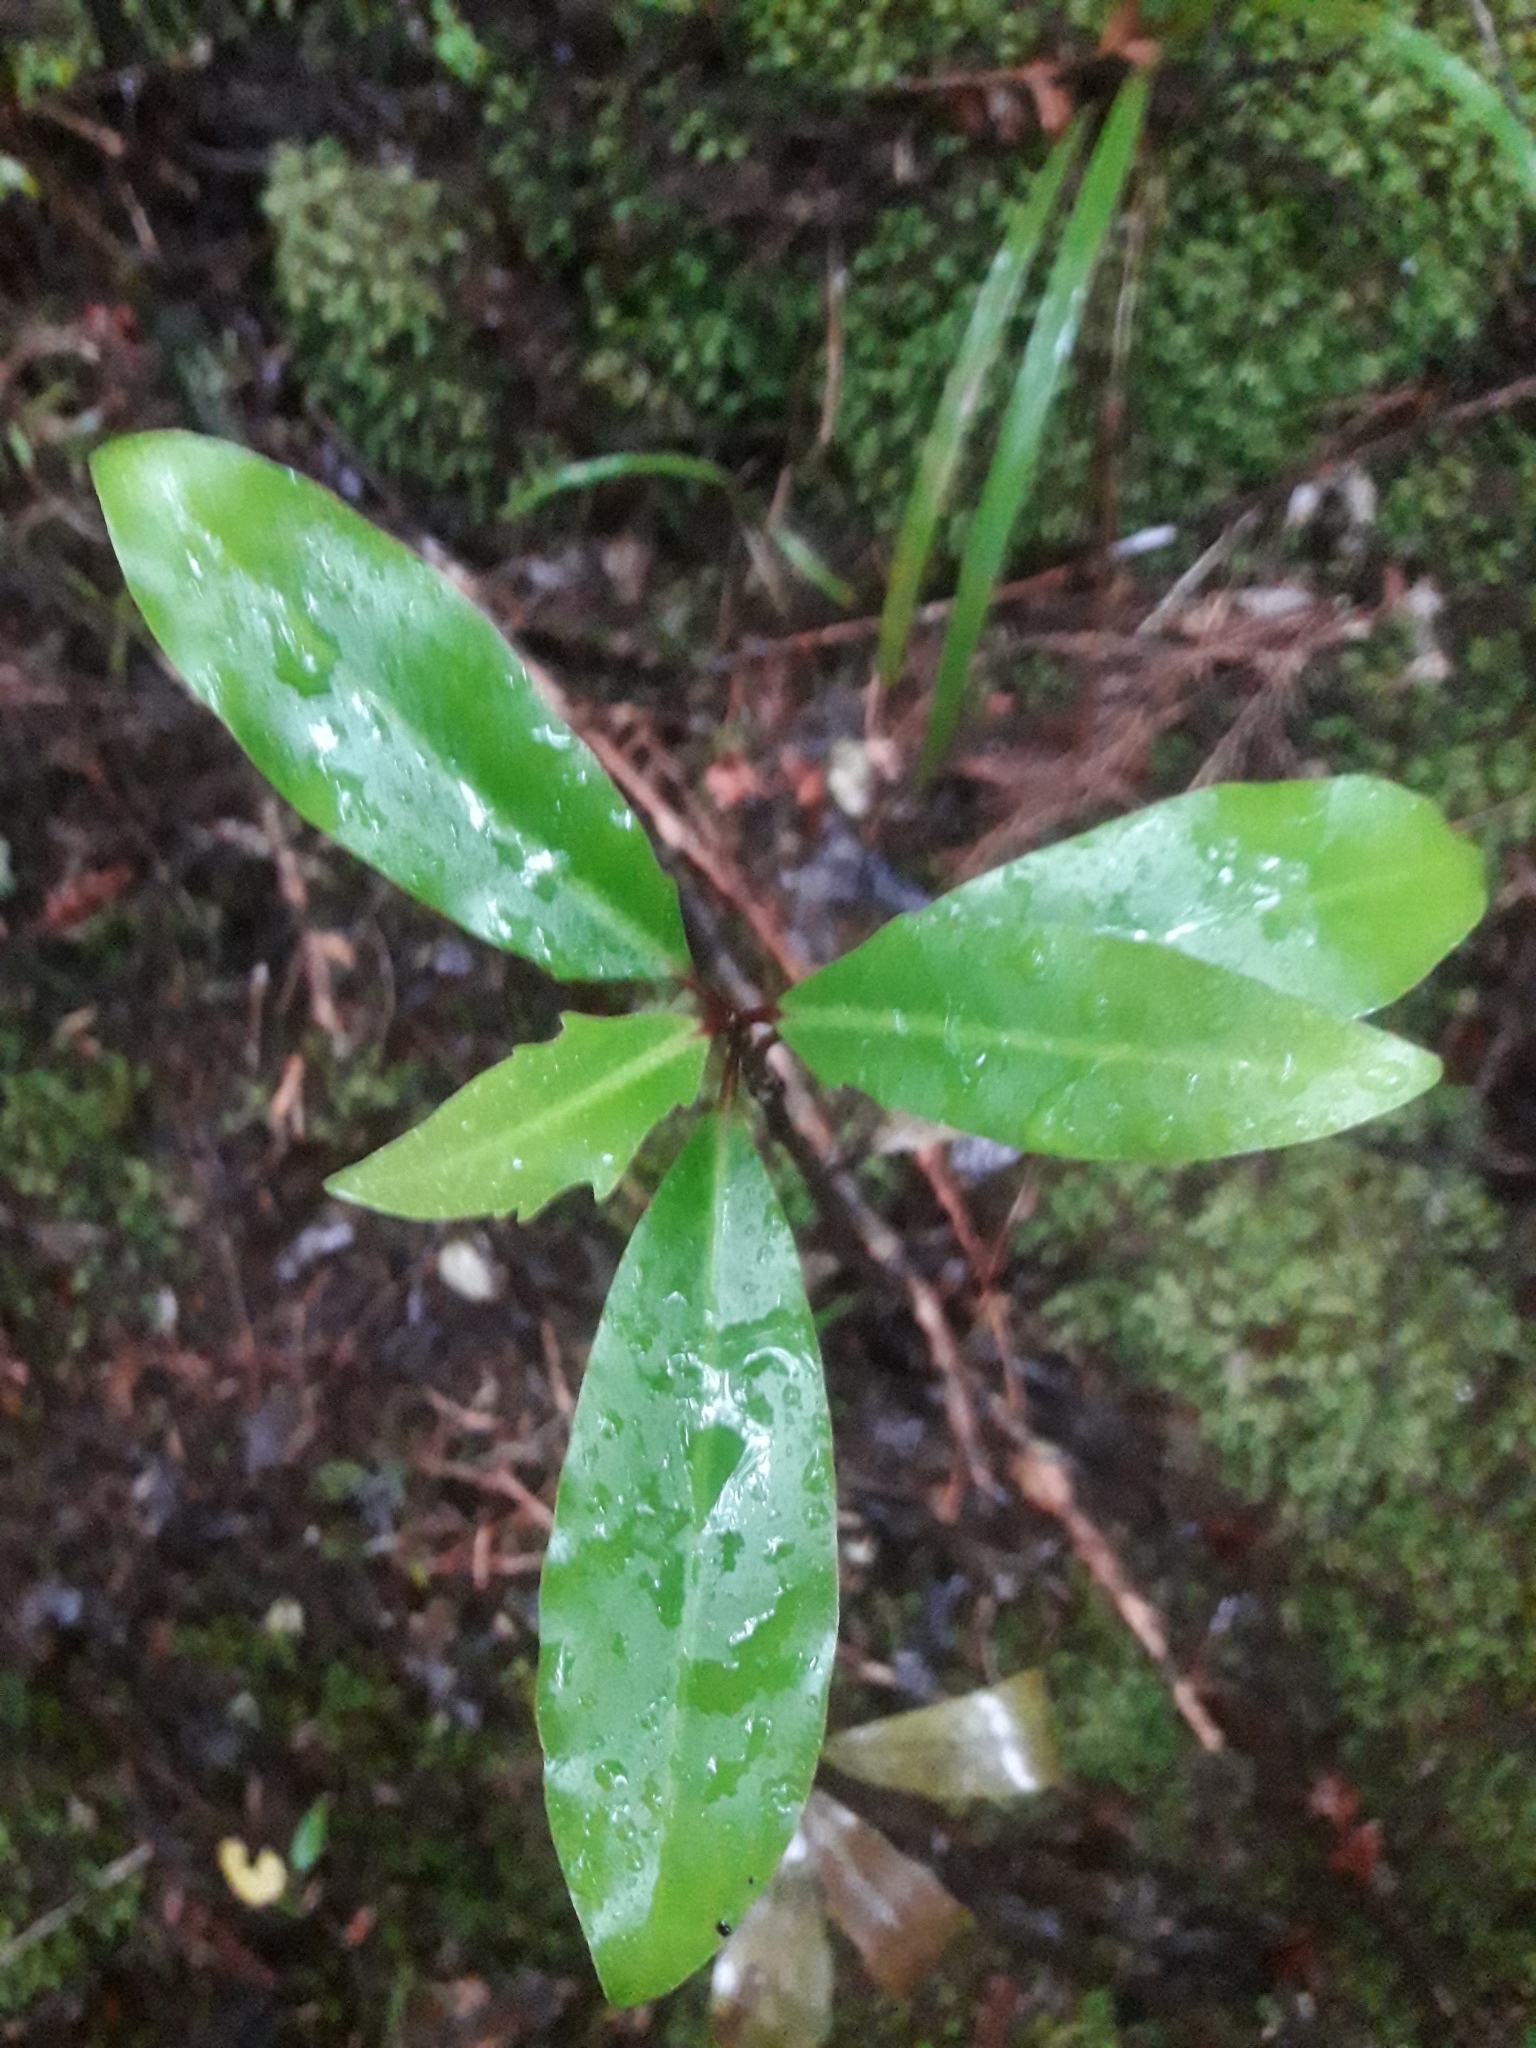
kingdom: Plantae
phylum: Tracheophyta
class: Magnoliopsida
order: Asterales
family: Alseuosmiaceae
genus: Alseuosmia
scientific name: Alseuosmia quercifolia
